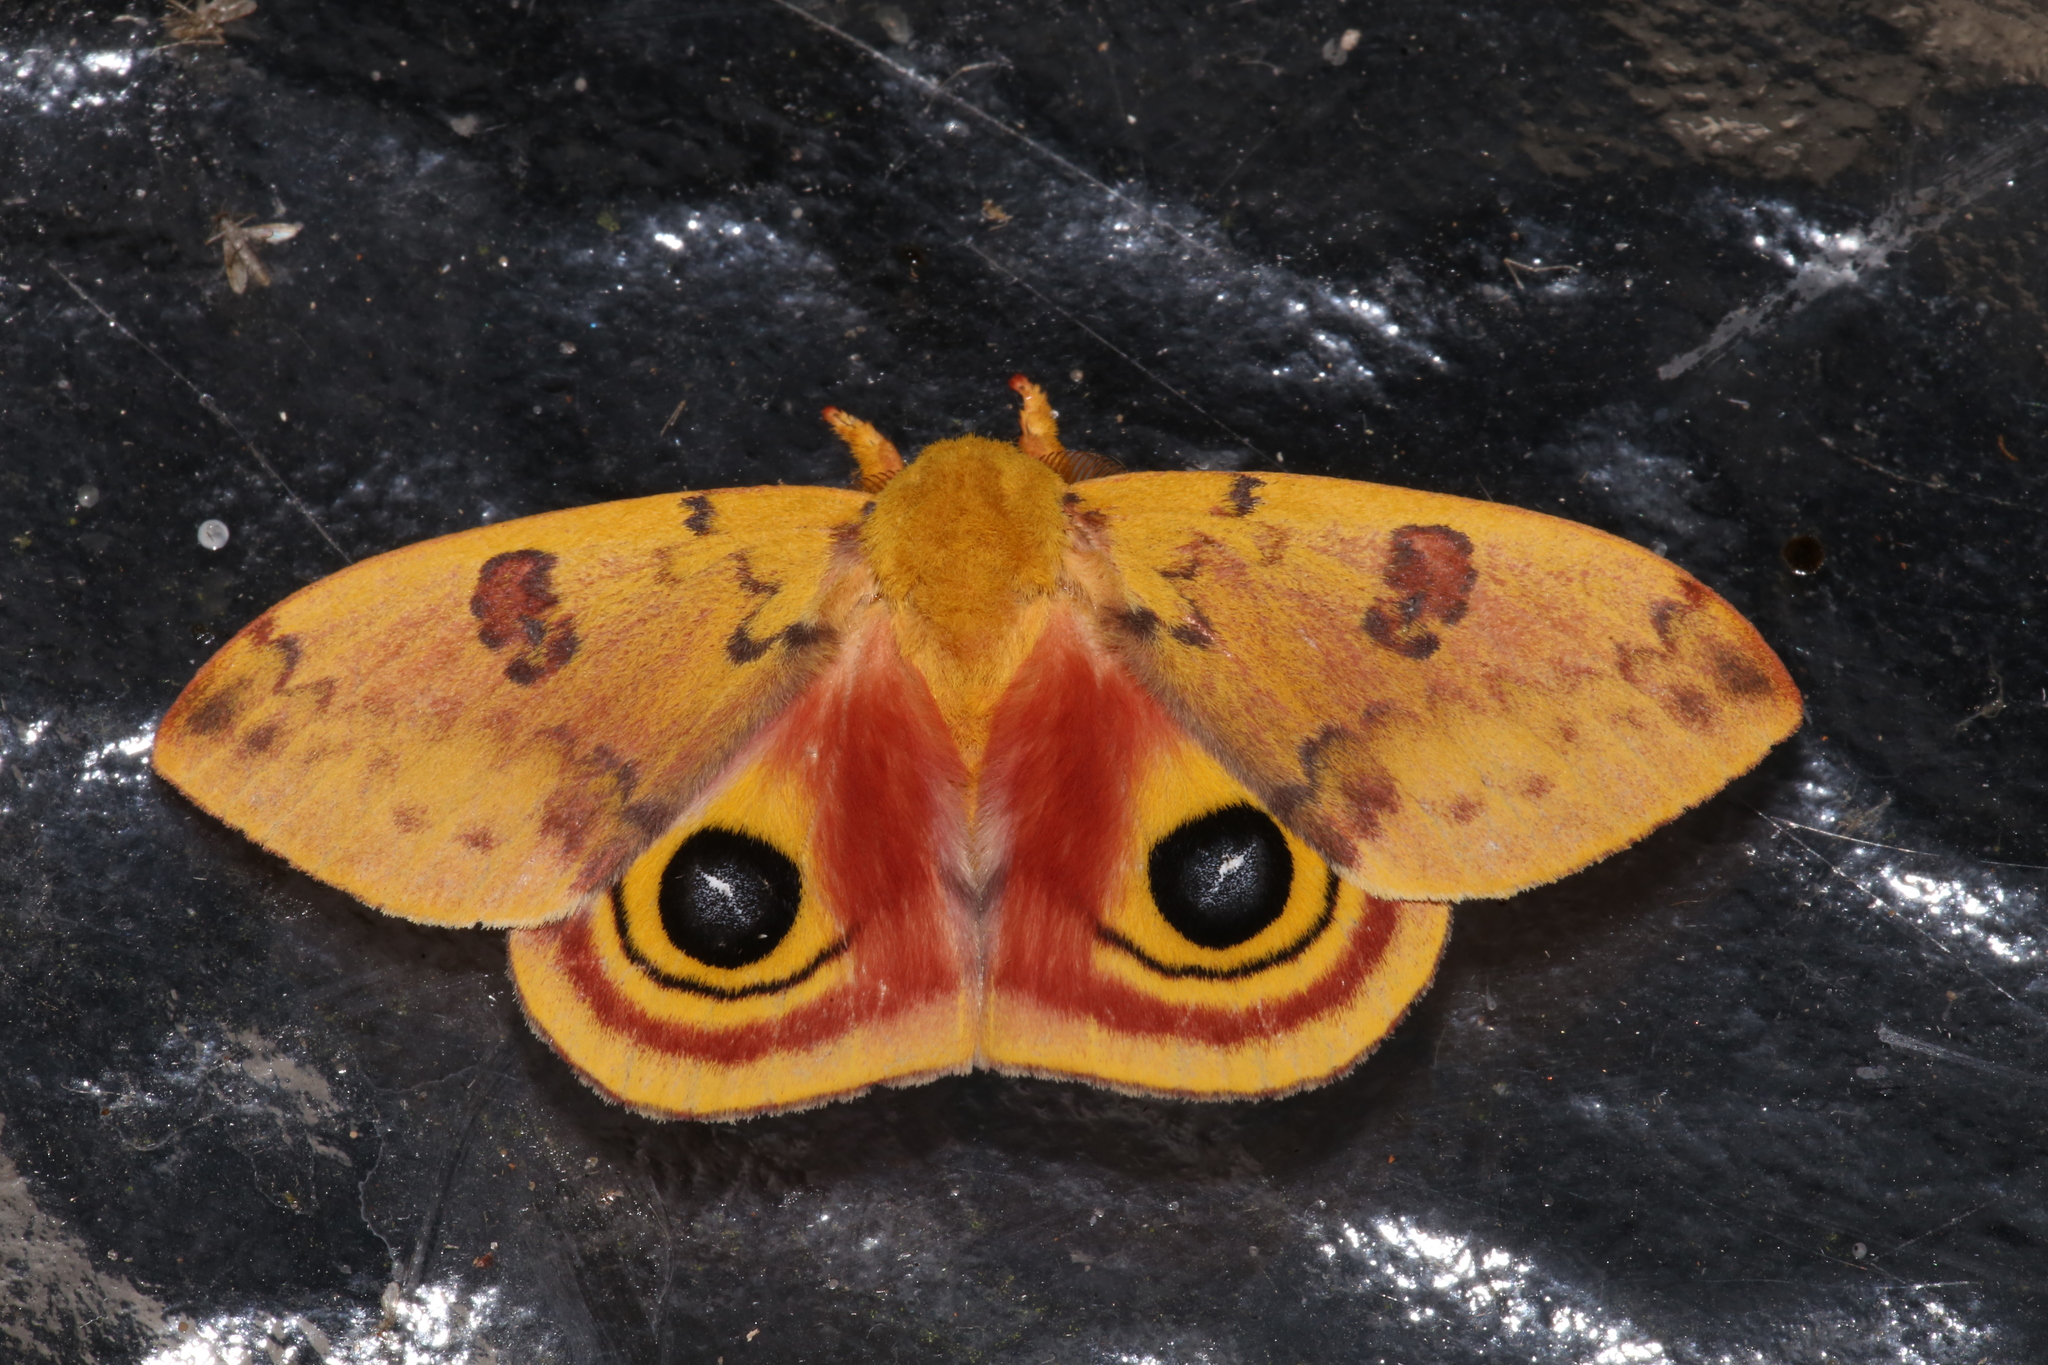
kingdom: Animalia
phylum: Arthropoda
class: Insecta
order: Lepidoptera
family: Saturniidae
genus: Automeris
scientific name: Automeris io
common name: Io moth
